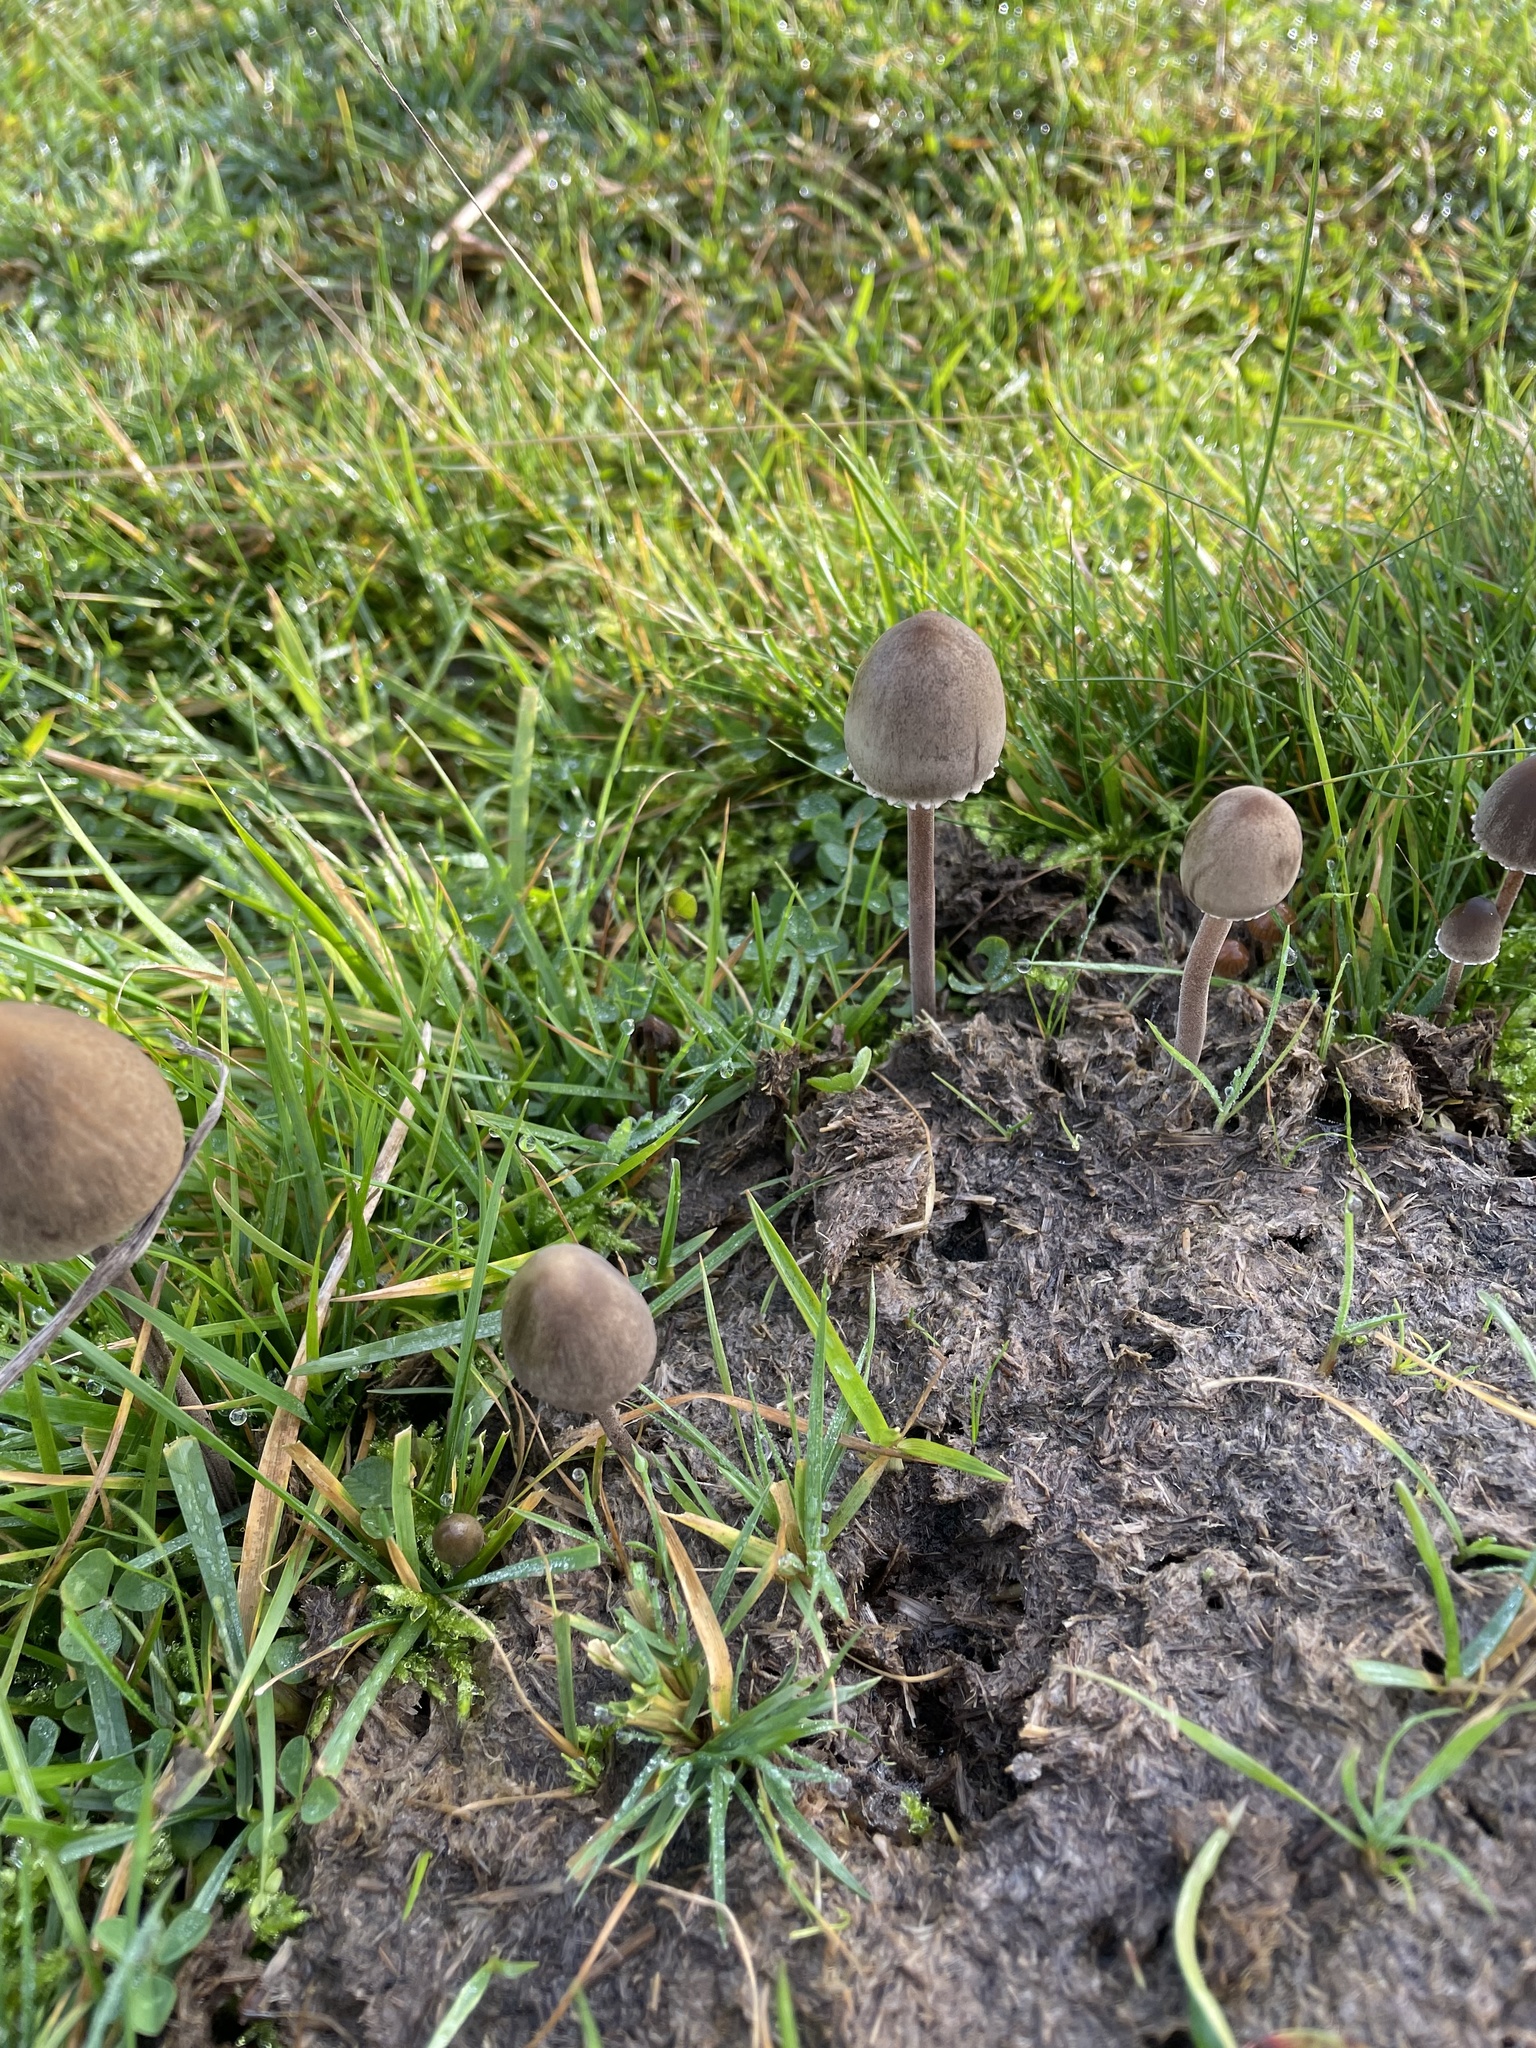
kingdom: Fungi
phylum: Basidiomycota
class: Agaricomycetes
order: Agaricales
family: Bolbitiaceae
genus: Panaeolus
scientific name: Panaeolus papilionaceus
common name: Petticoat mottlegill
